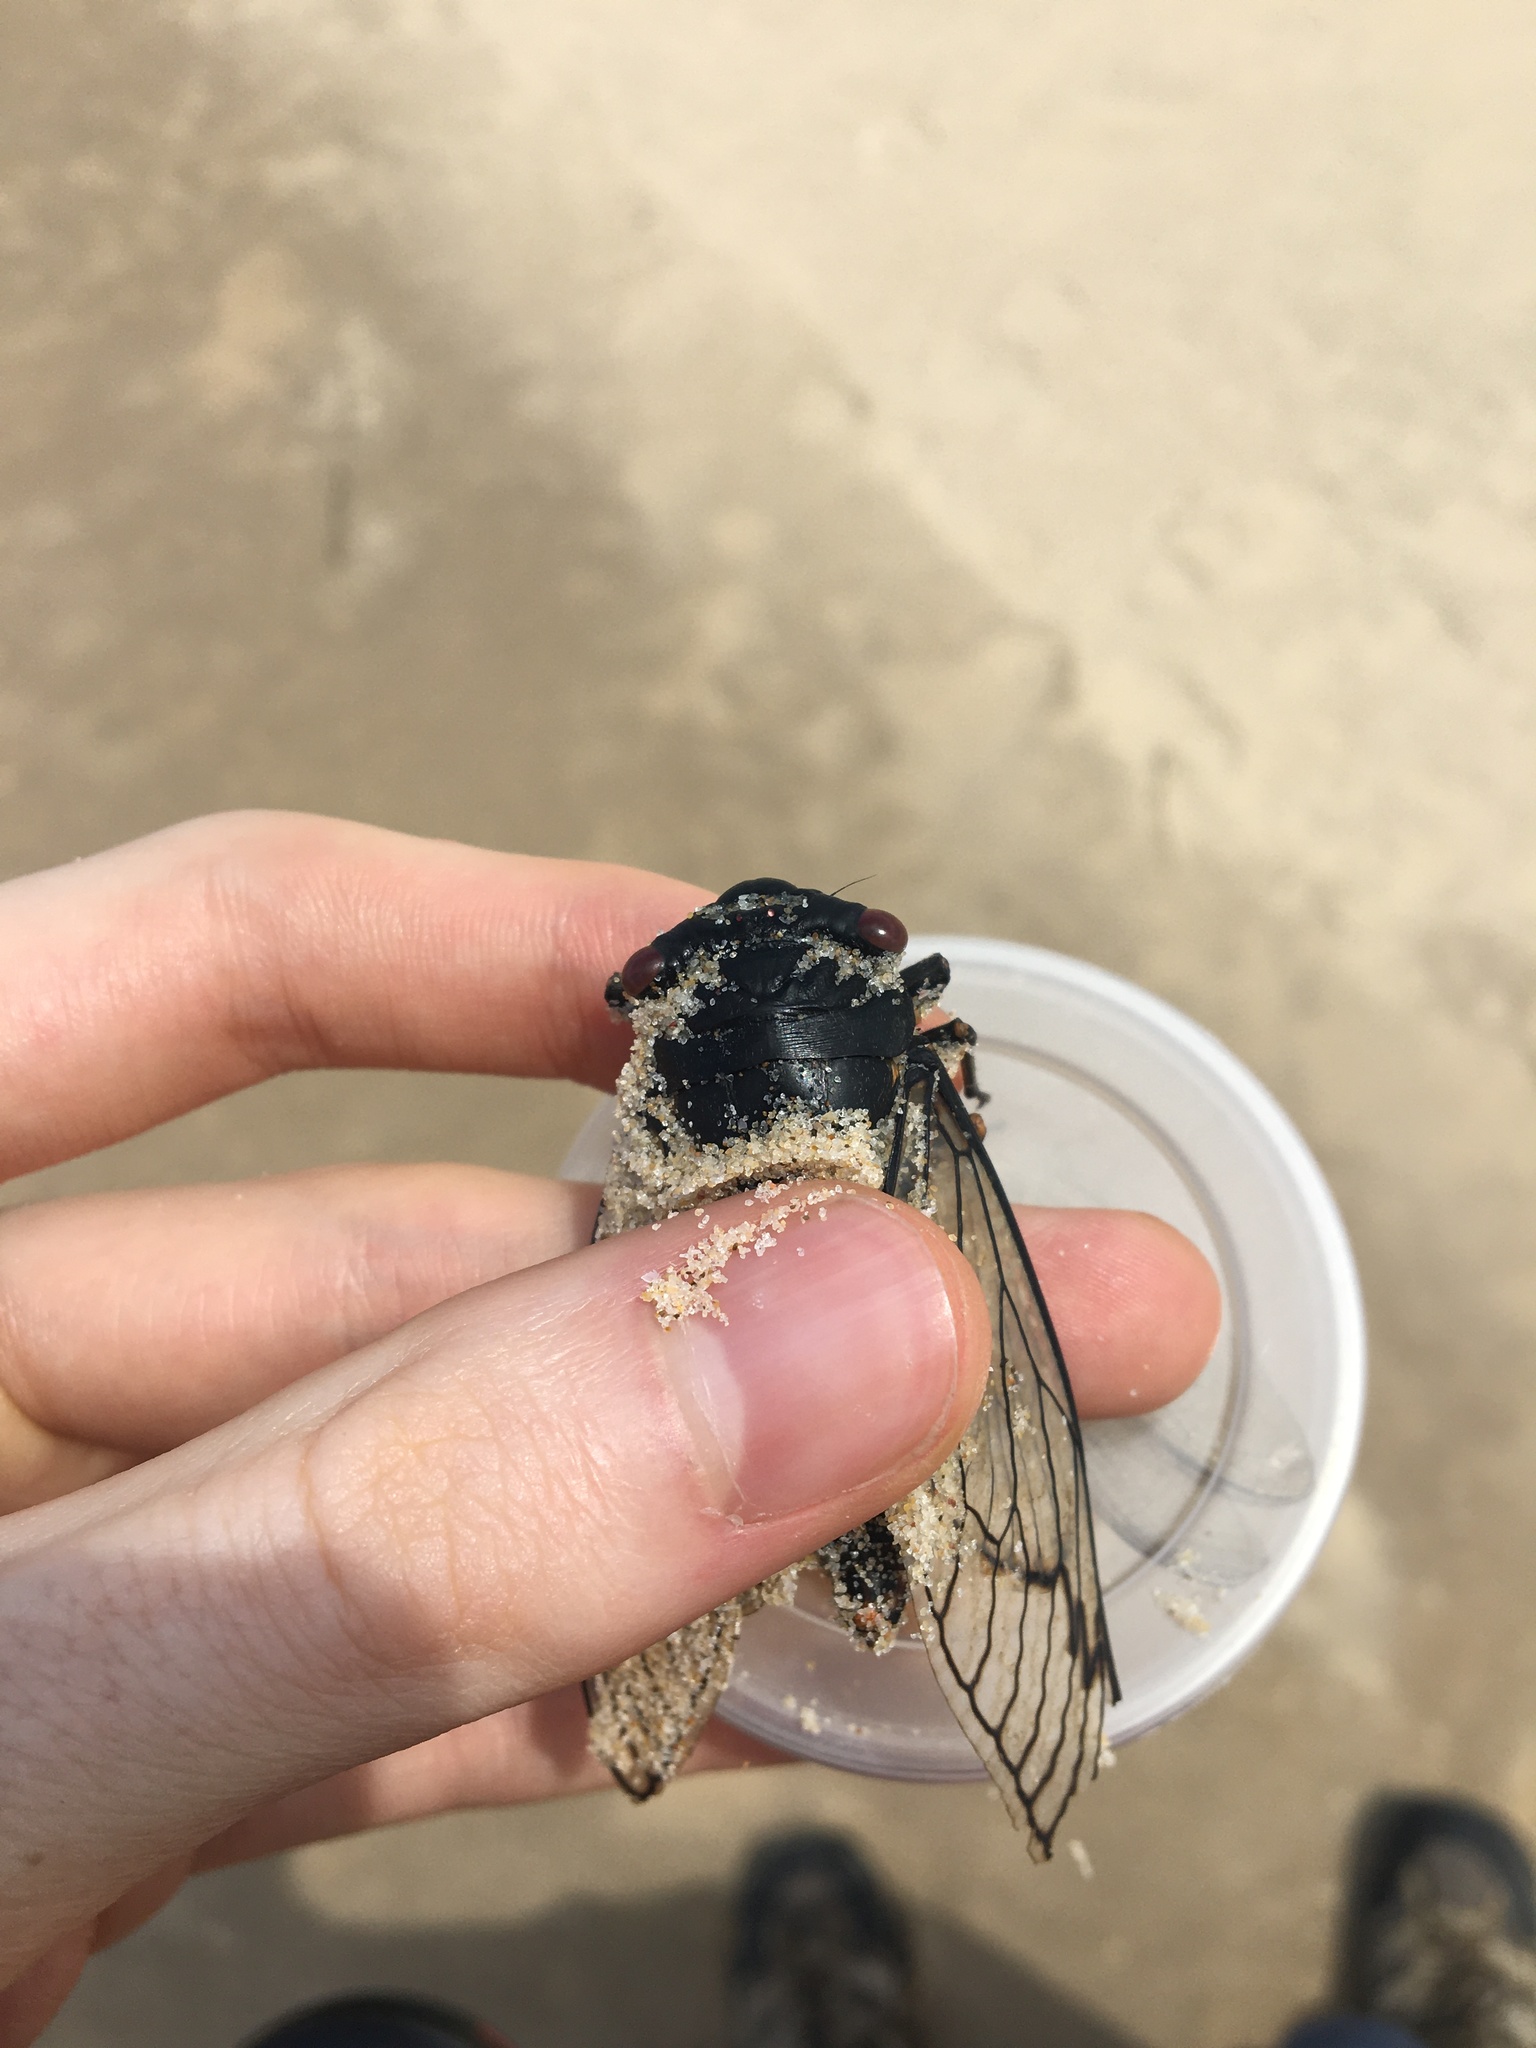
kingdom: Animalia
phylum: Arthropoda
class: Insecta
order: Hemiptera
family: Cicadidae
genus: Psaltoda
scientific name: Psaltoda moerens
